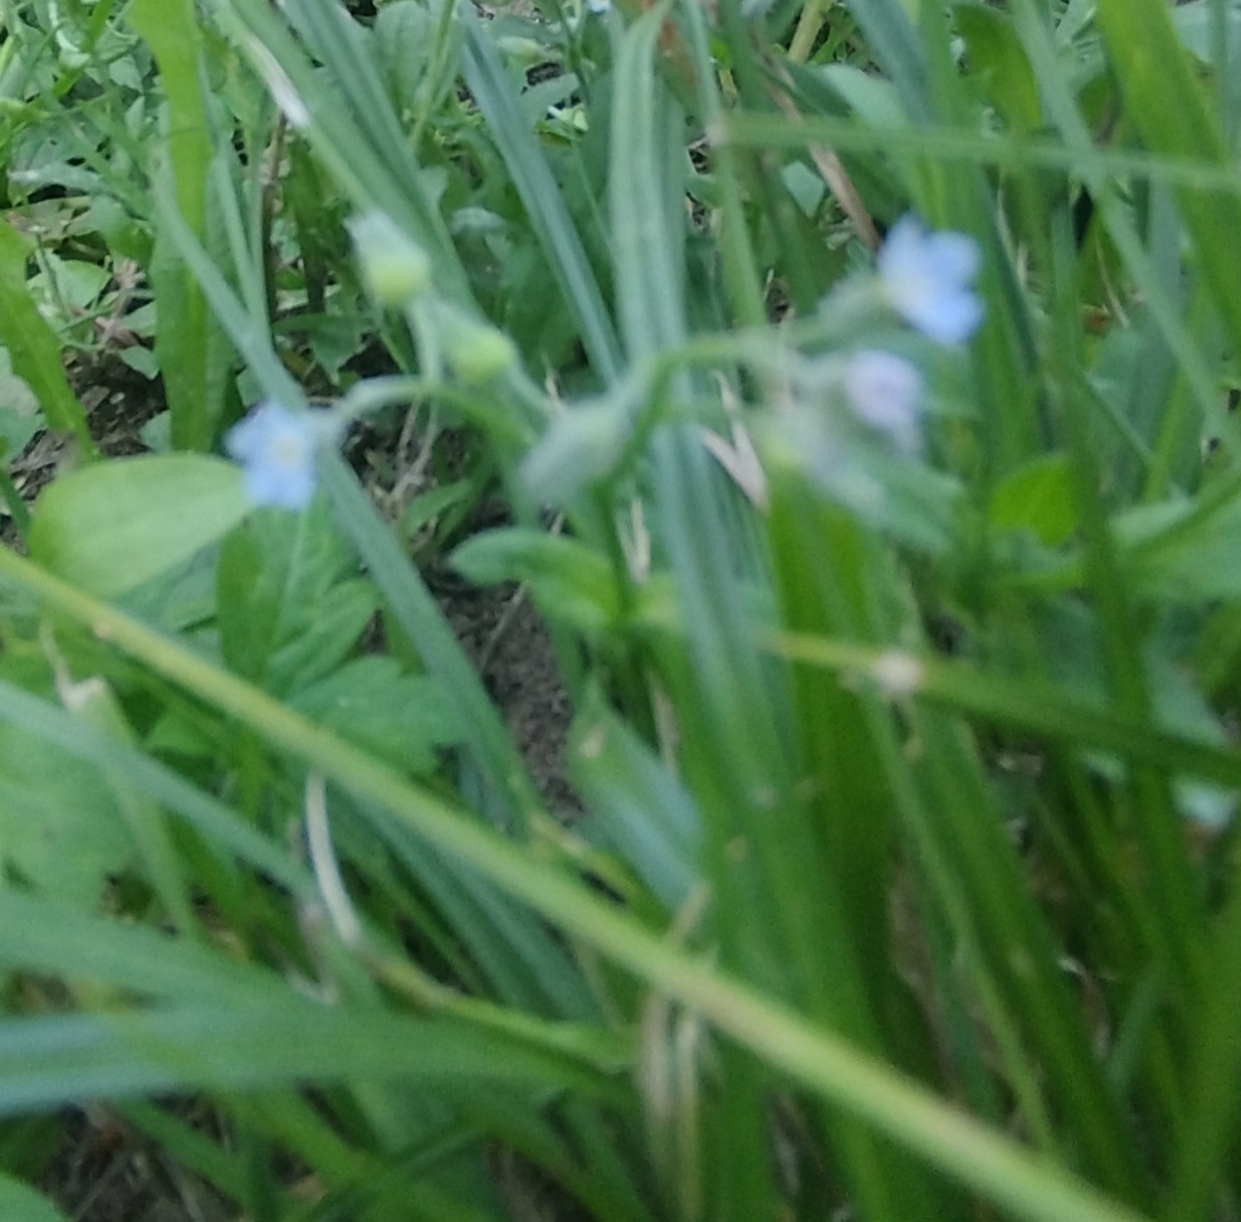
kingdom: Plantae
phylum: Tracheophyta
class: Magnoliopsida
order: Boraginales
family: Boraginaceae
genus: Myosotis
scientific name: Myosotis arvensis
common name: Field forget-me-not
